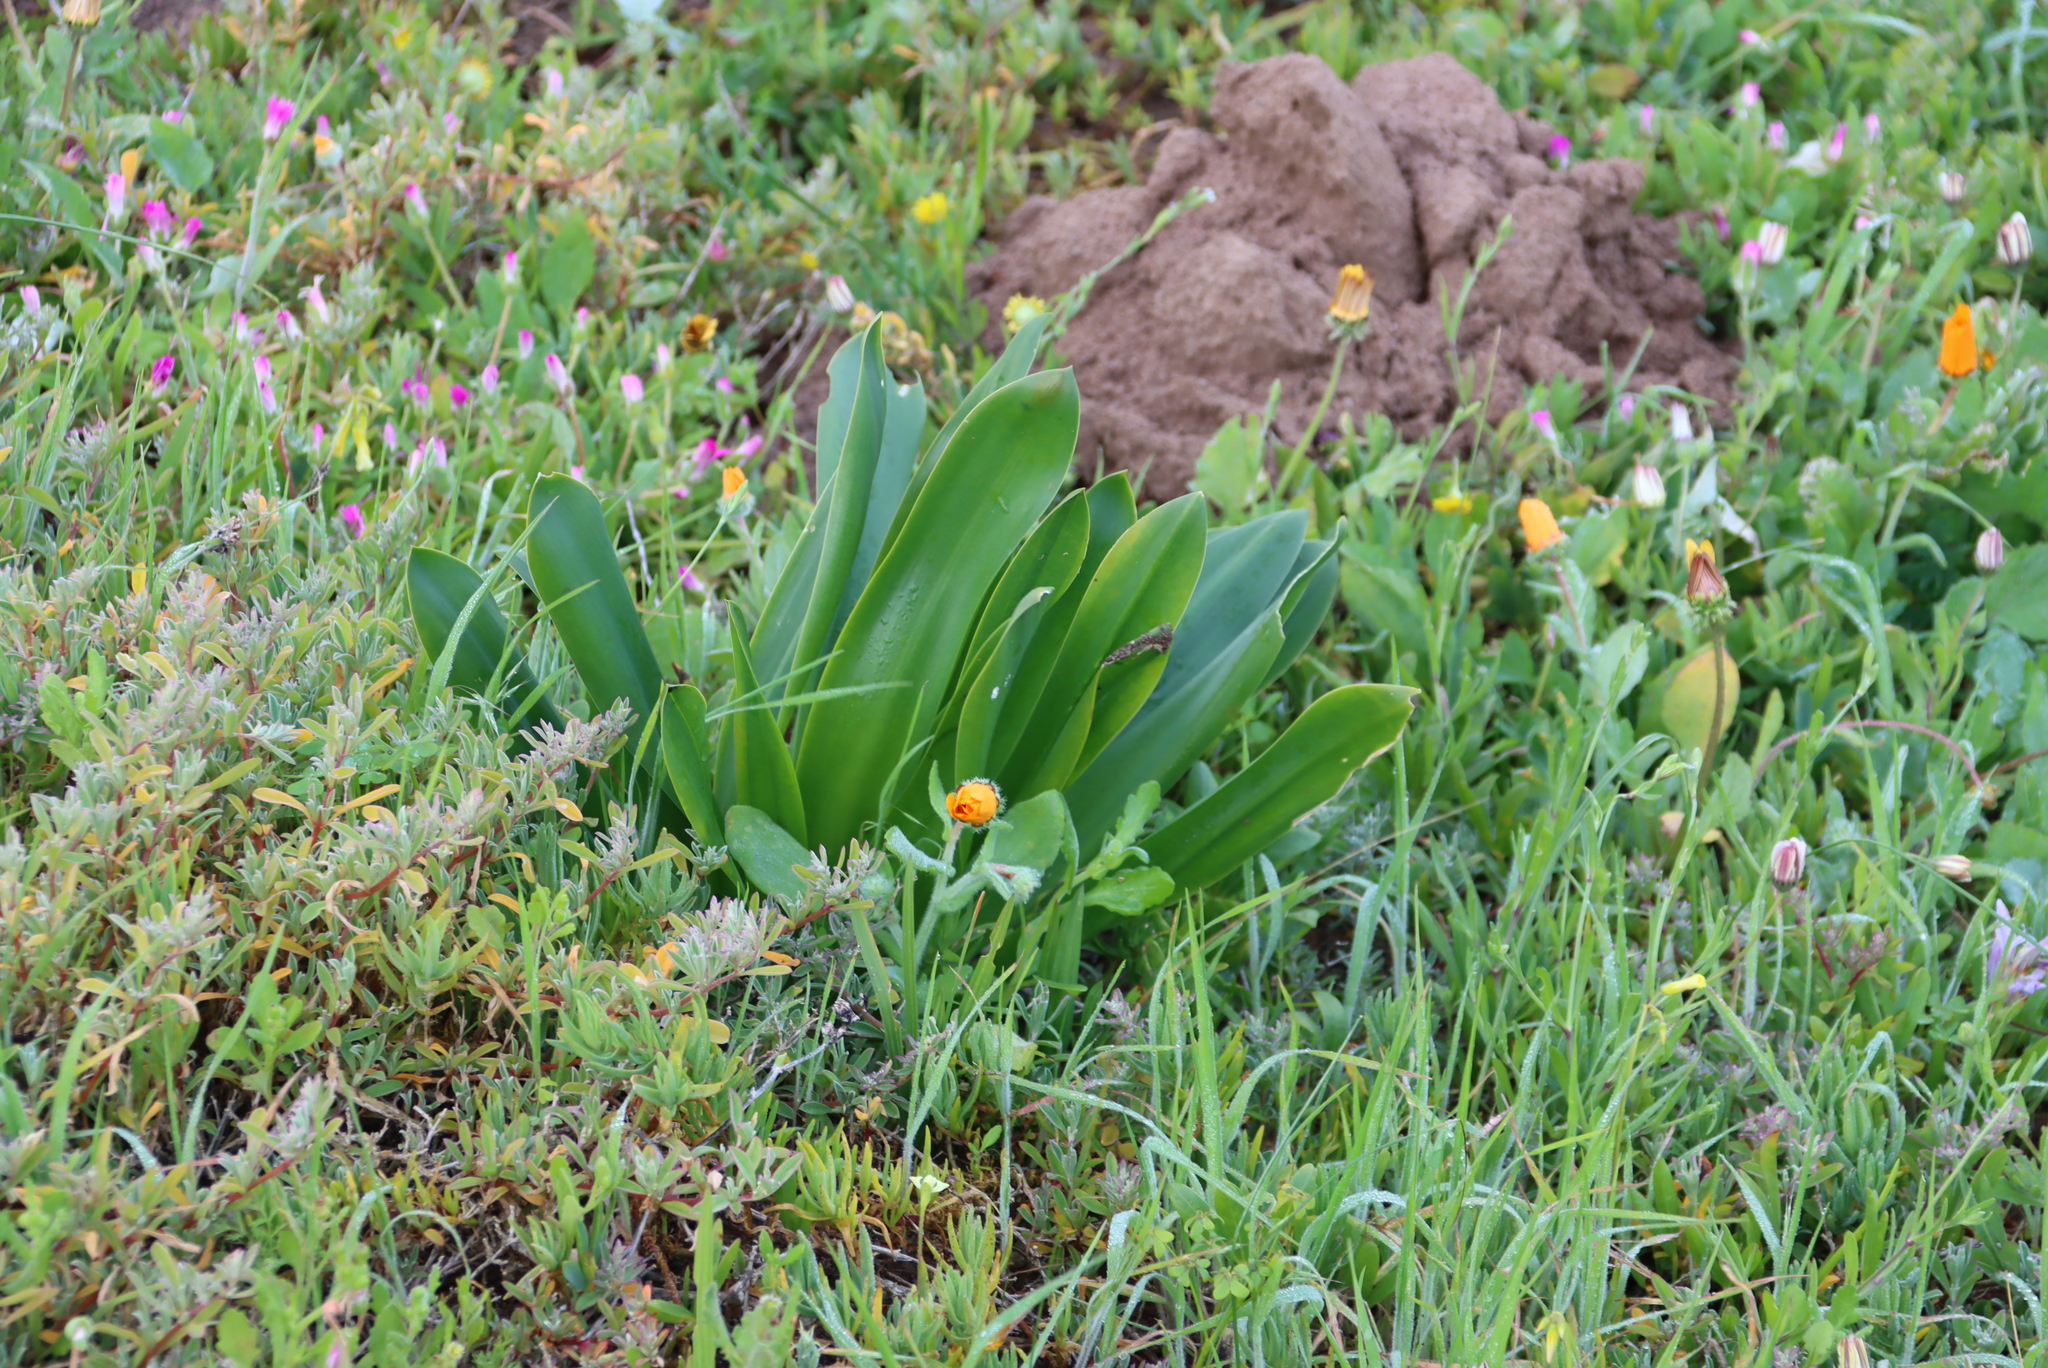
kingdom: Plantae
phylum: Tracheophyta
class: Liliopsida
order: Asparagales
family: Asparagaceae
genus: Drimia
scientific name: Drimia capensis
